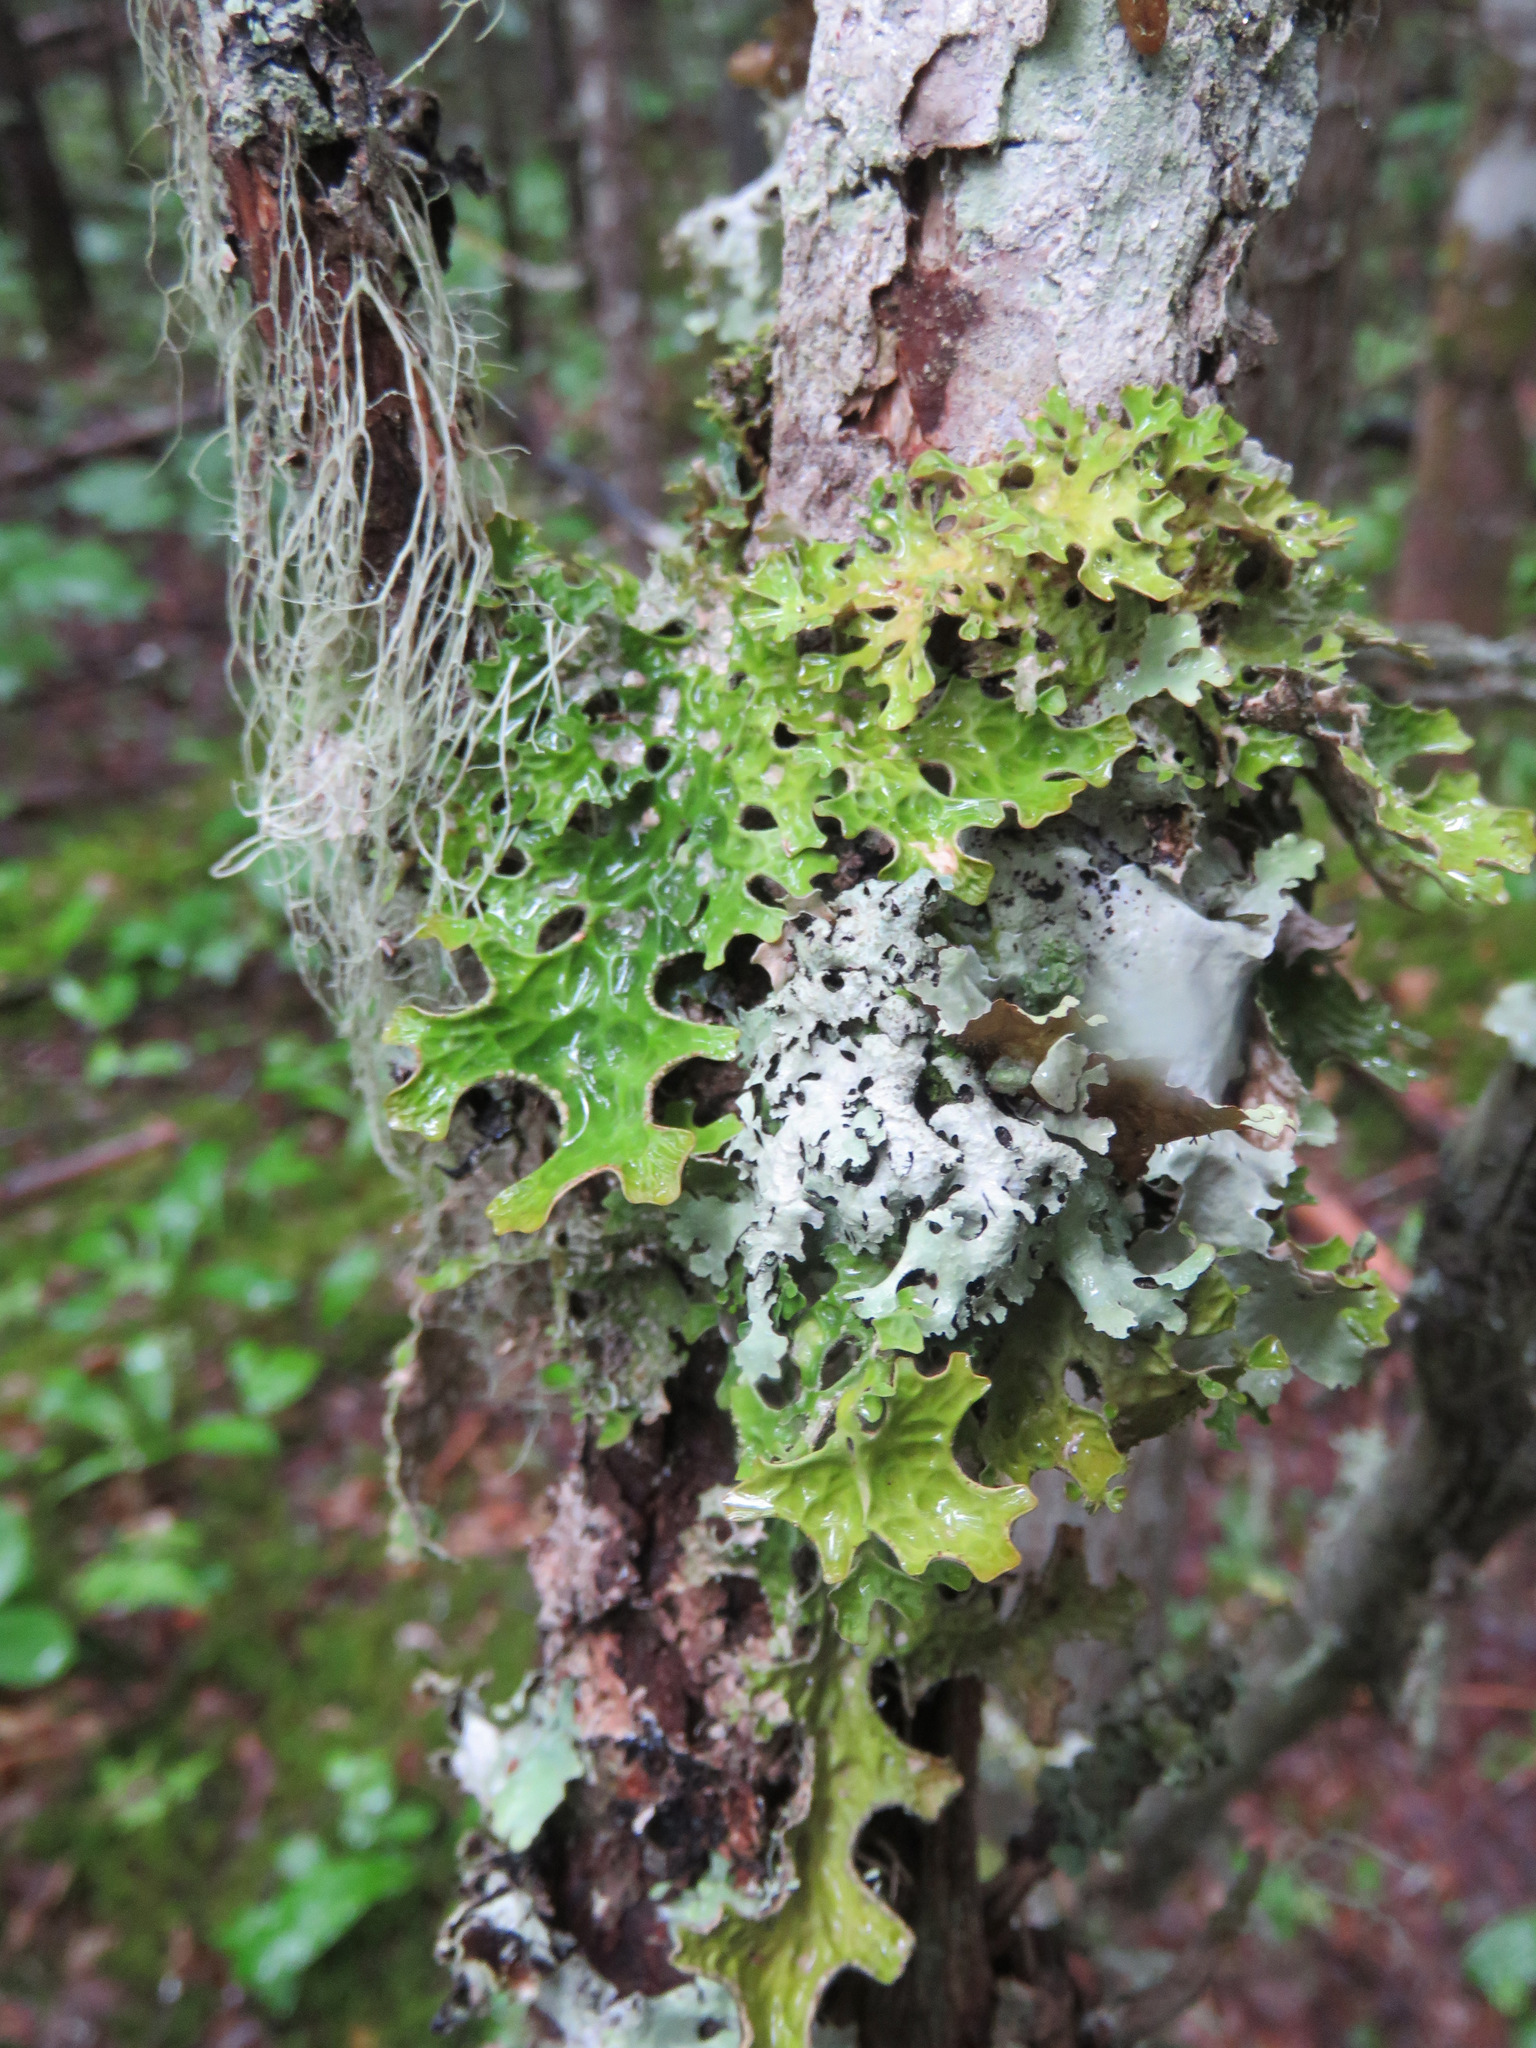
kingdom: Fungi
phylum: Ascomycota
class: Lecanoromycetes
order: Peltigerales
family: Lobariaceae
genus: Lobaria
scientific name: Lobaria pulmonaria
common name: Lungwort
